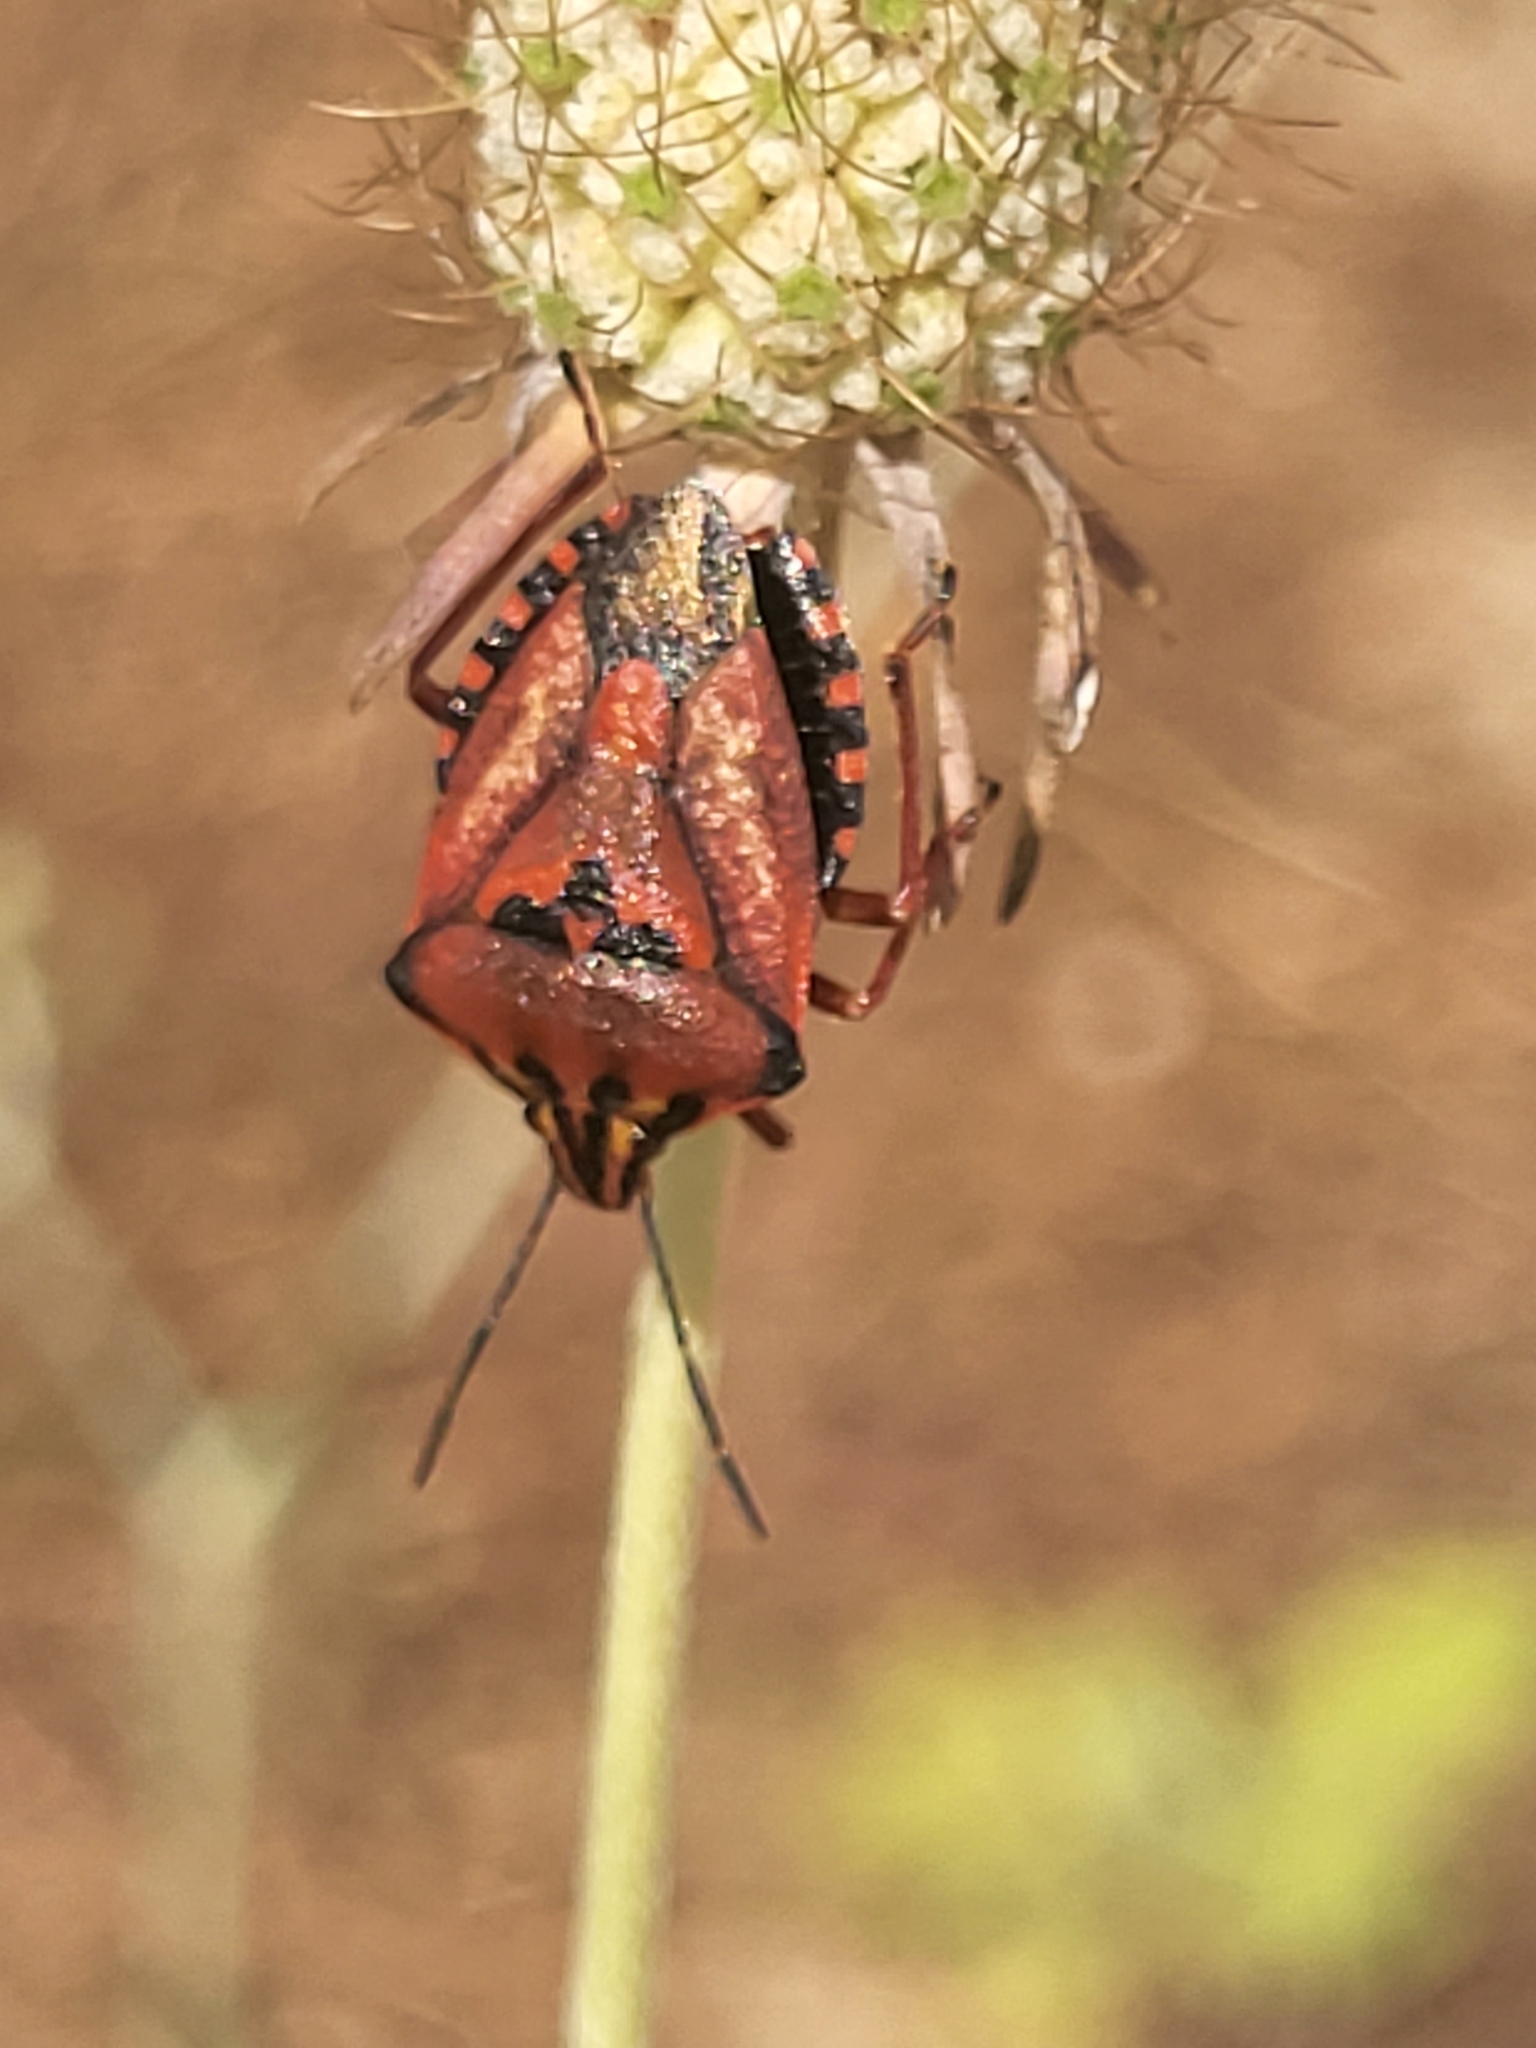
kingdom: Animalia
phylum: Arthropoda
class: Insecta
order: Hemiptera
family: Pentatomidae
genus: Carpocoris
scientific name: Carpocoris mediterraneus
